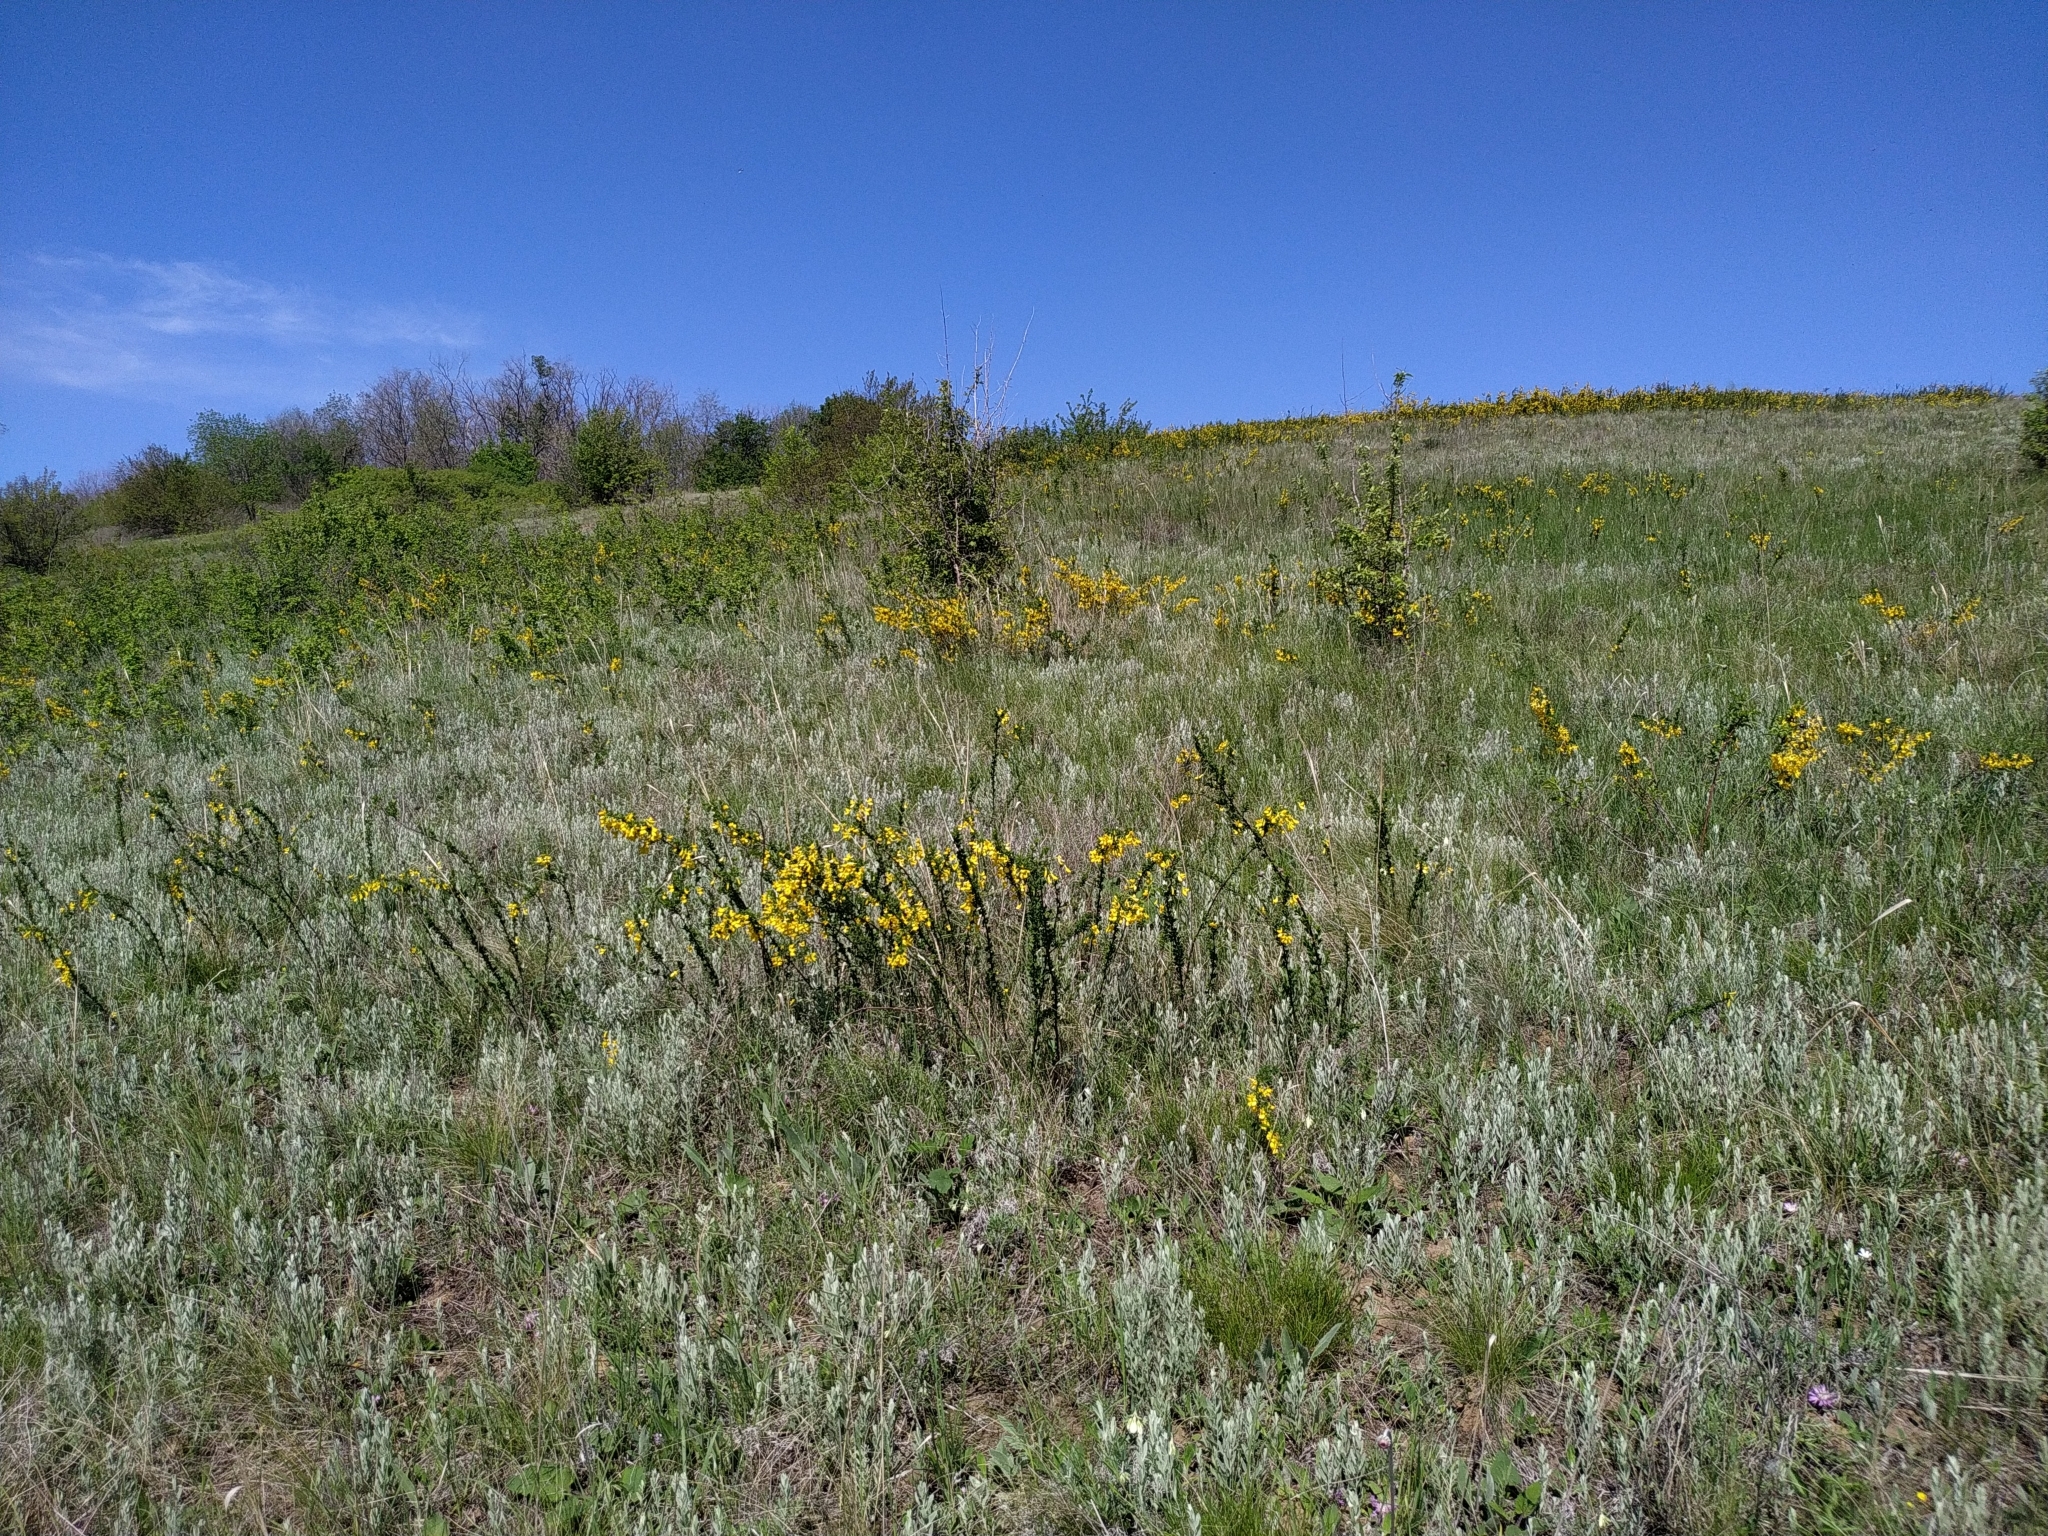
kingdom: Plantae
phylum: Tracheophyta
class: Magnoliopsida
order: Fabales
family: Fabaceae
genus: Caragana
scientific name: Caragana frutex
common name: Russian peashrub
